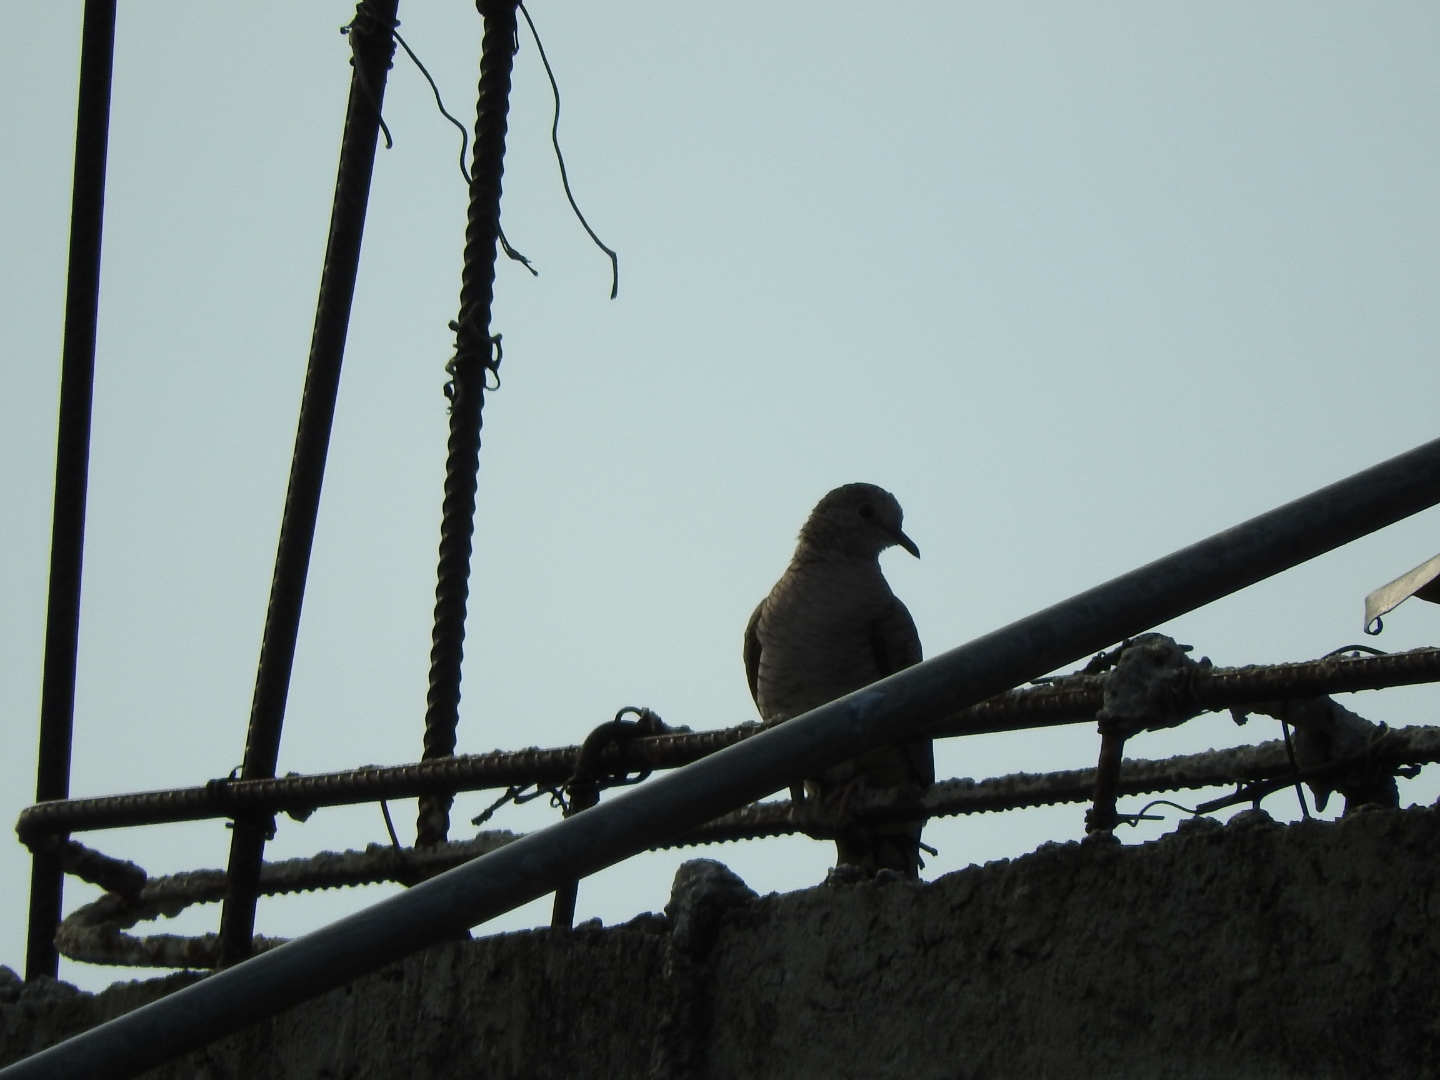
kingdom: Animalia
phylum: Chordata
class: Aves
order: Columbiformes
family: Columbidae
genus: Columbina
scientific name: Columbina inca
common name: Inca dove
